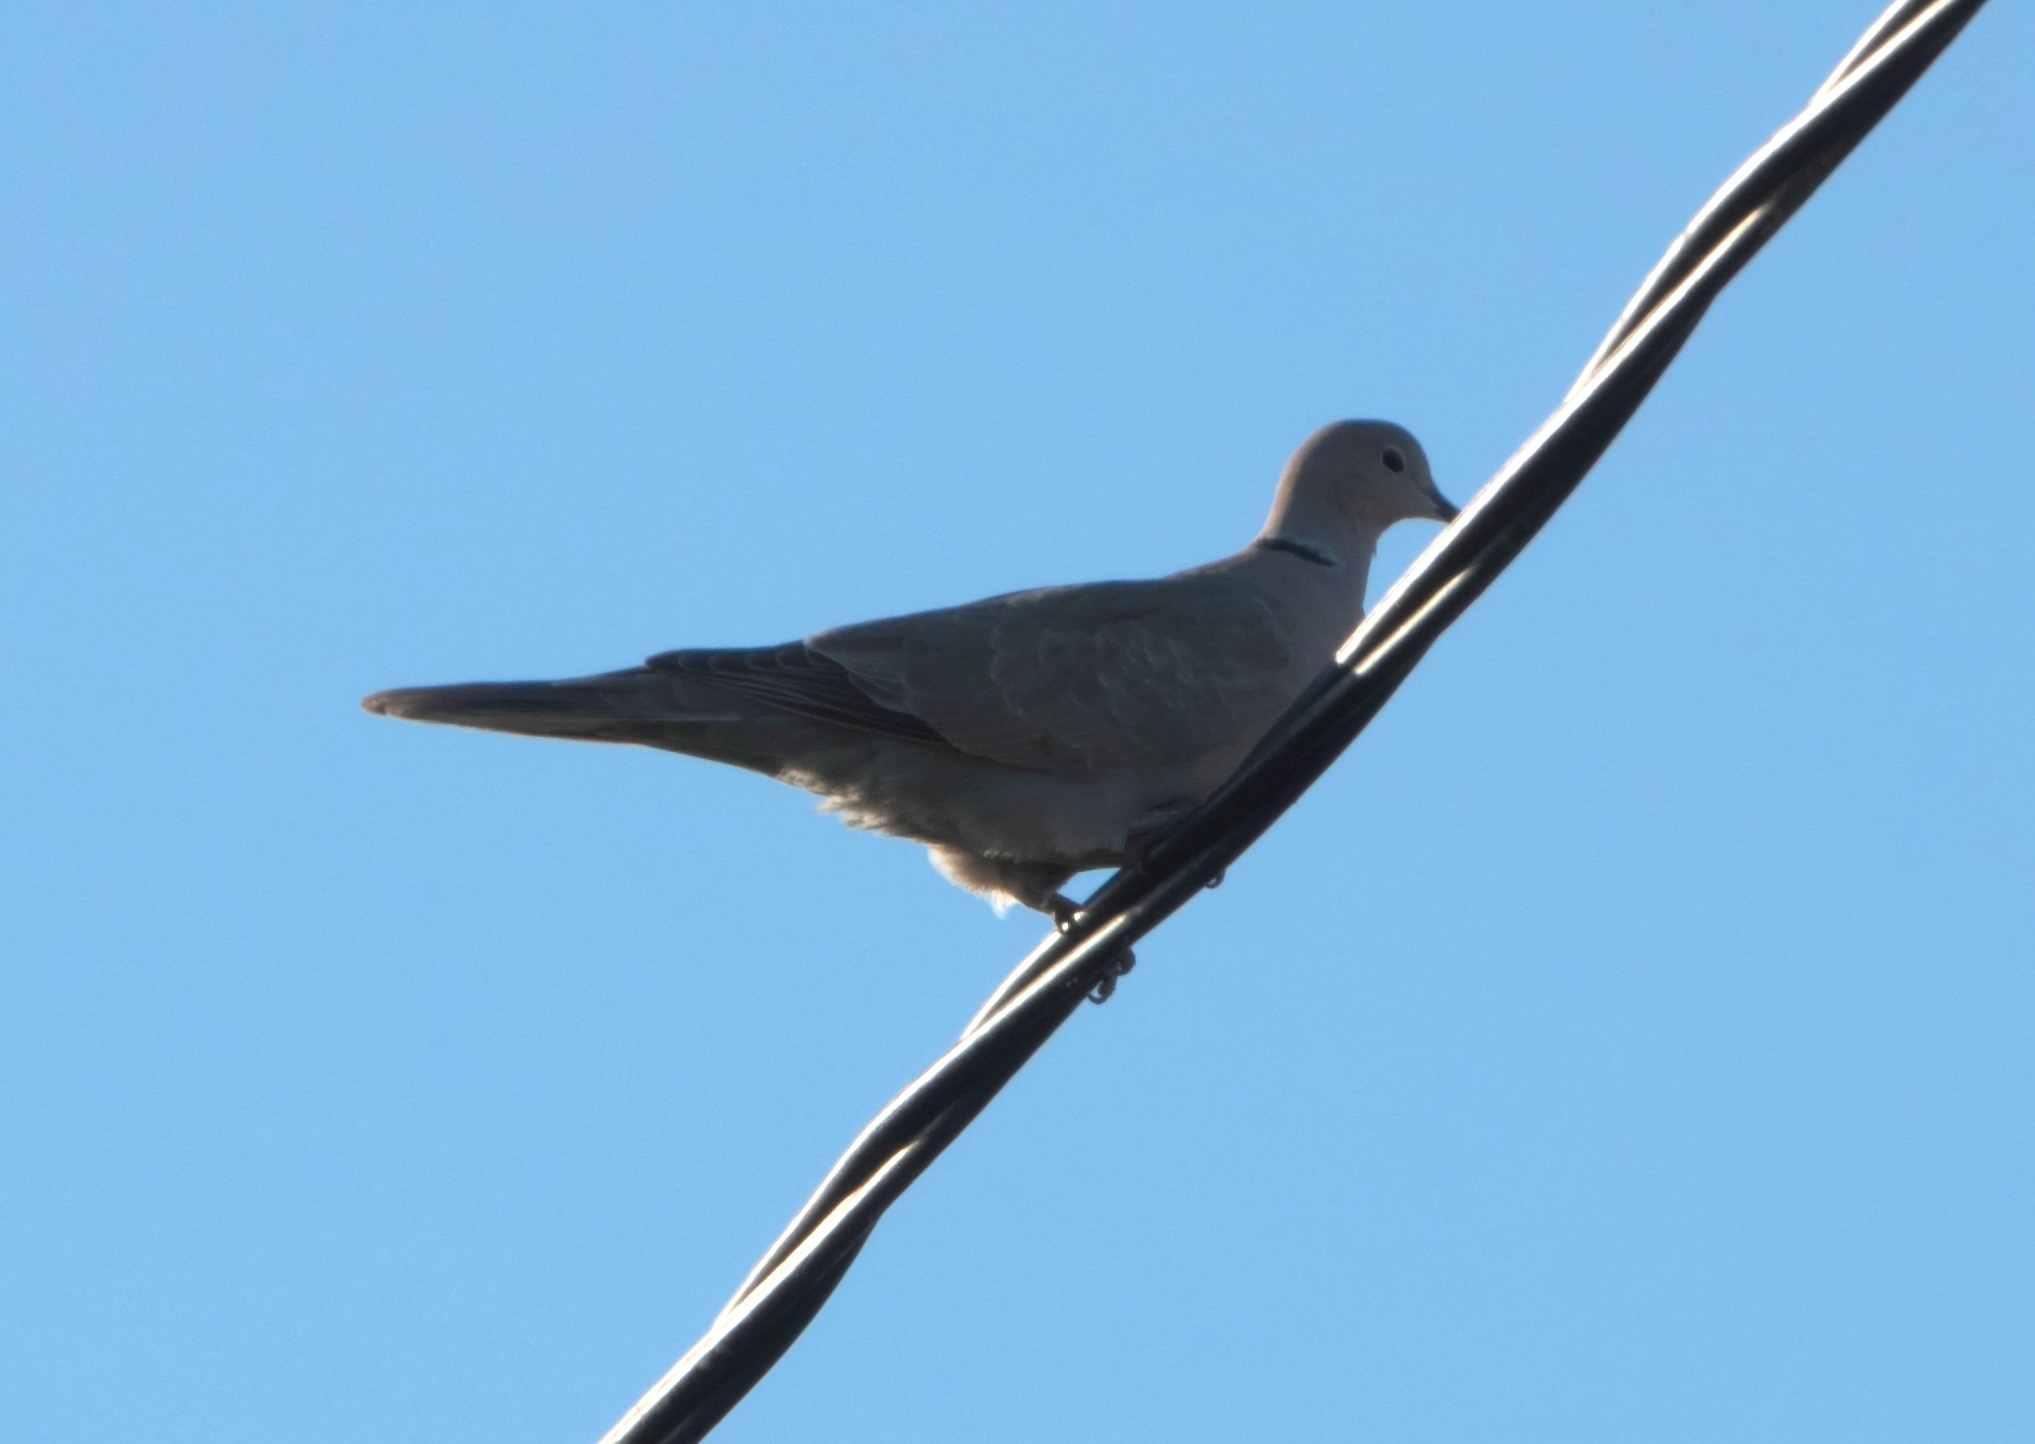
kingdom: Animalia
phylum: Chordata
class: Aves
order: Columbiformes
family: Columbidae
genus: Streptopelia
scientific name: Streptopelia decaocto
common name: Eurasian collared dove
